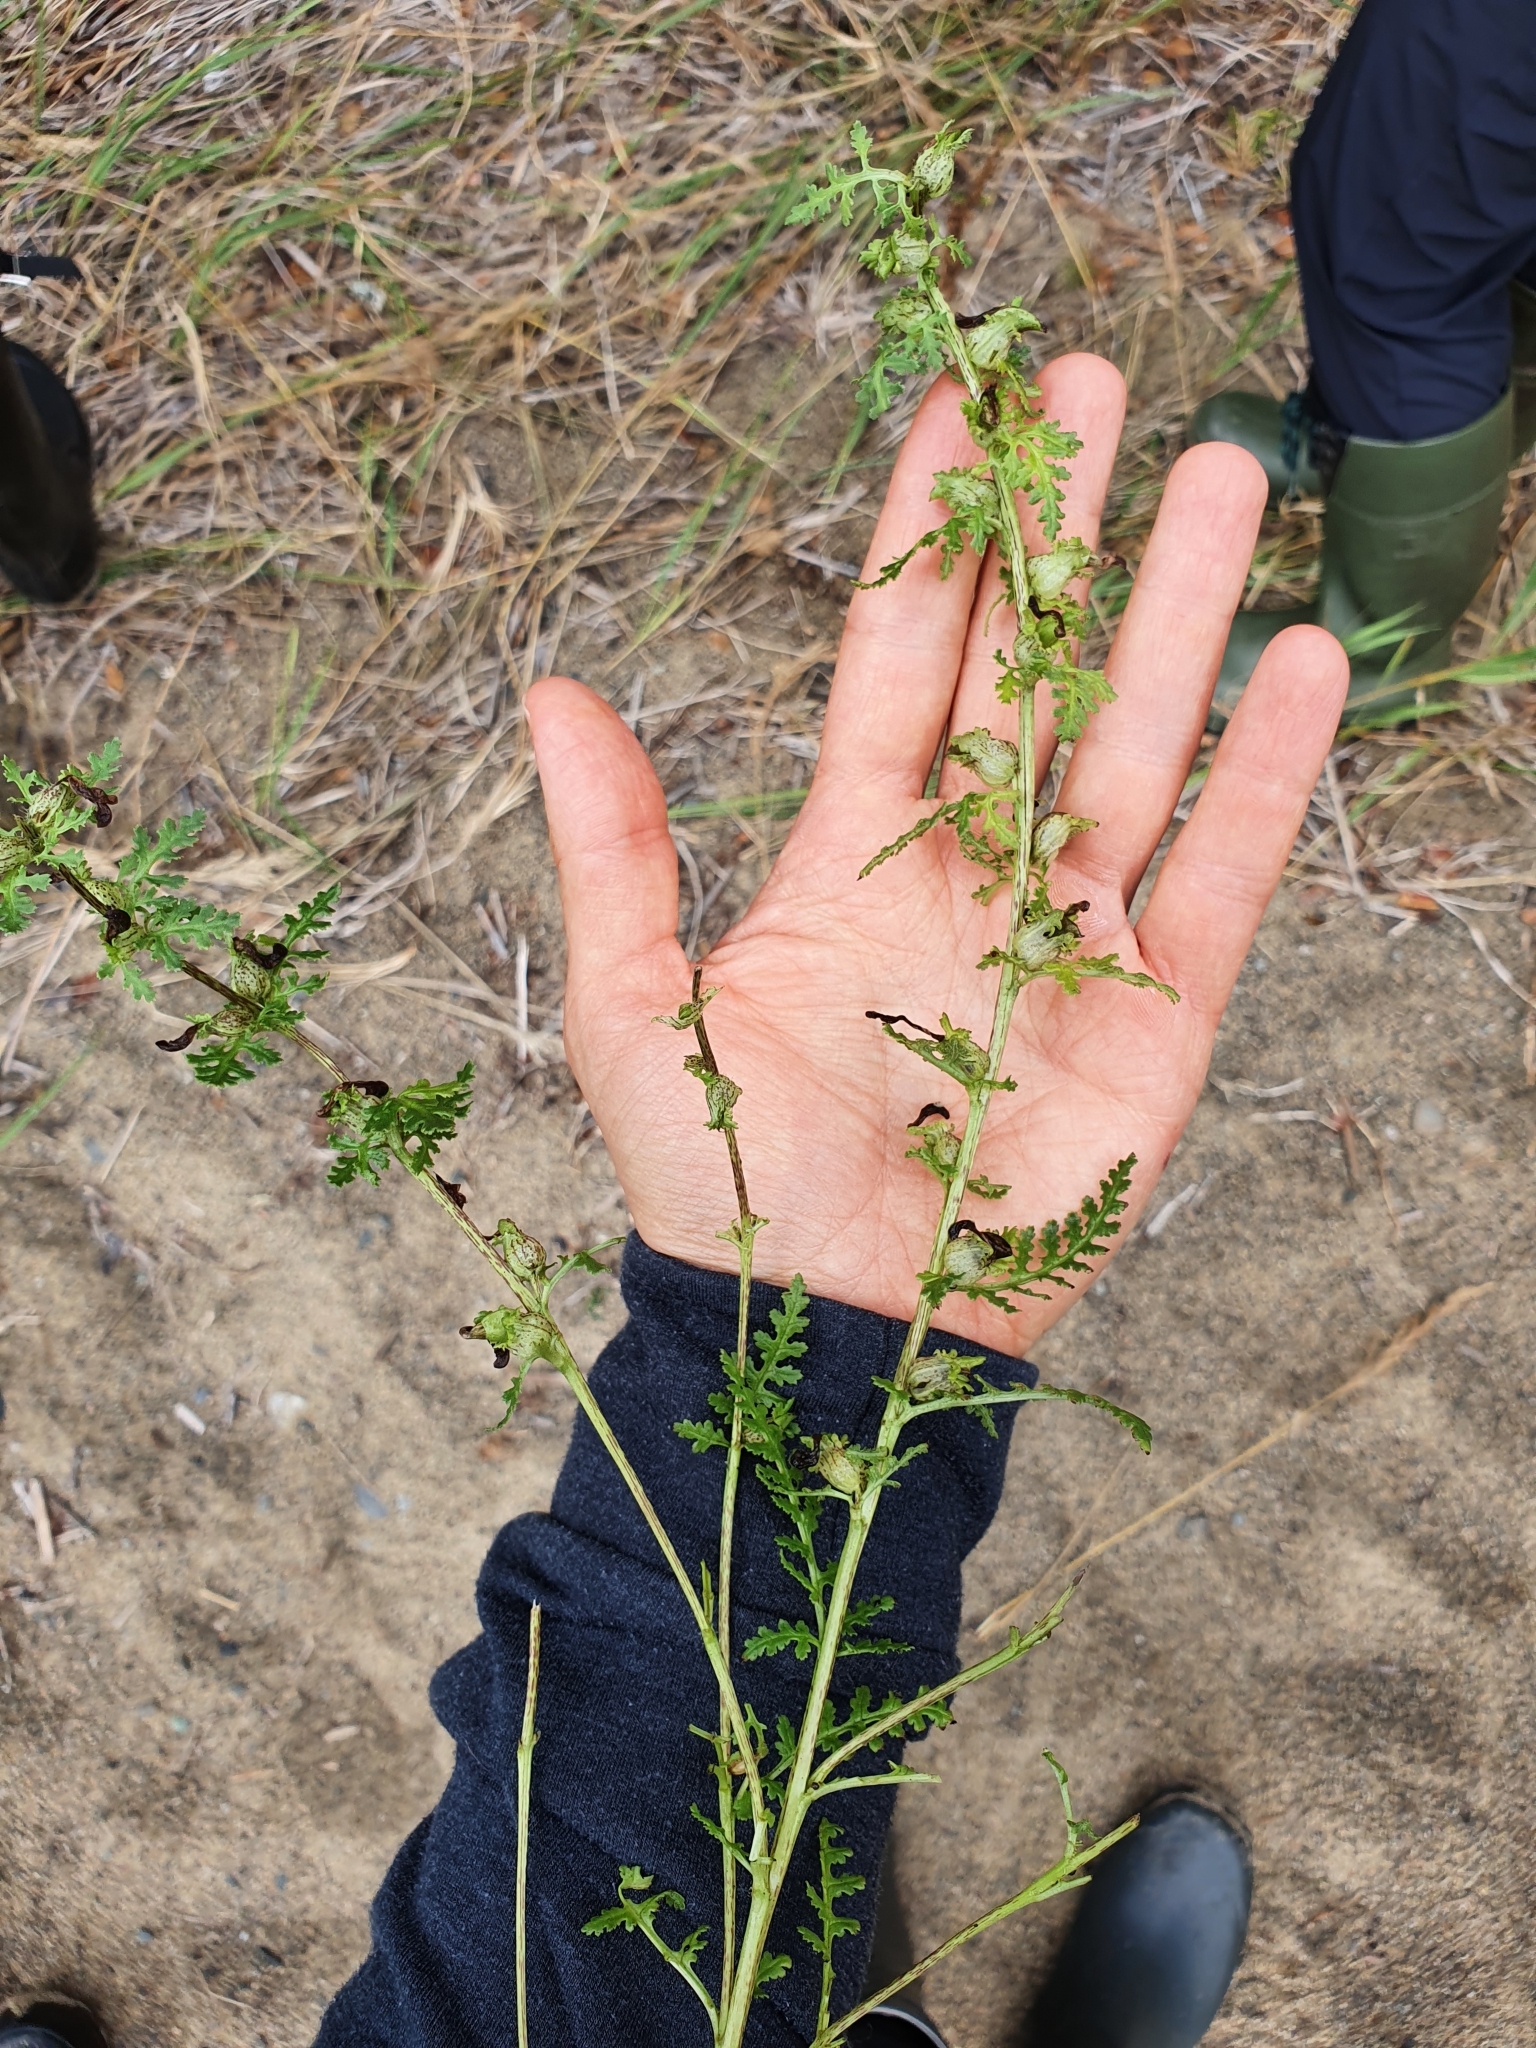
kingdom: Plantae
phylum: Tracheophyta
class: Magnoliopsida
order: Lamiales
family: Orobanchaceae
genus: Pedicularis
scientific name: Pedicularis palustris
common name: Marsh lousewort
